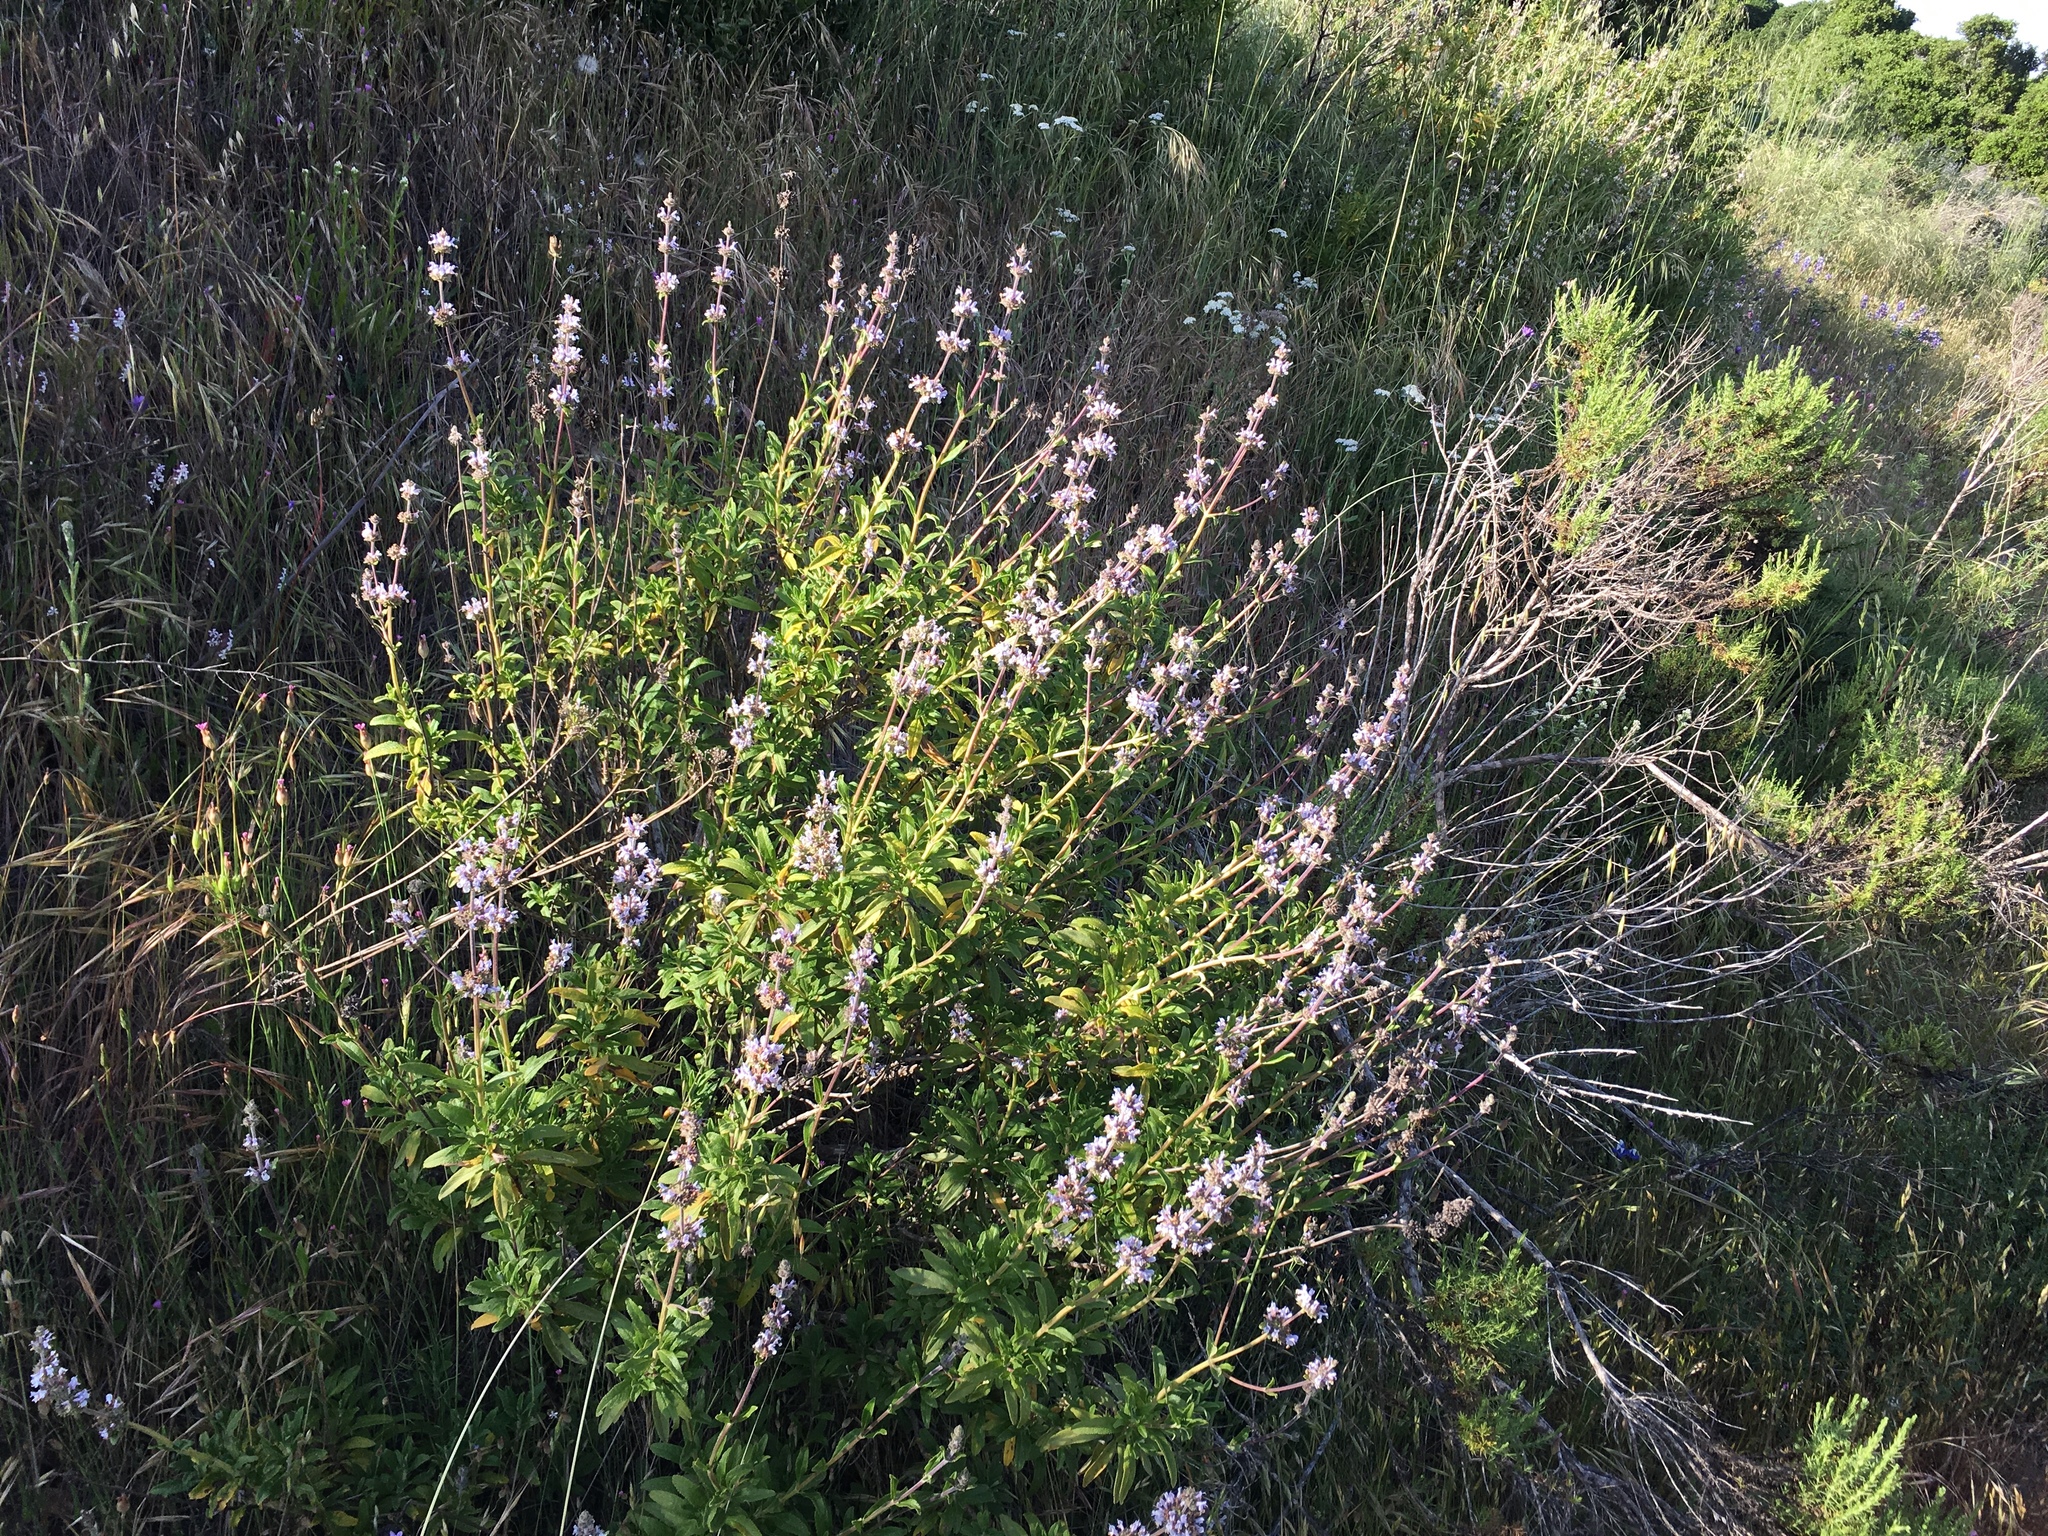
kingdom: Plantae
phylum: Tracheophyta
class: Magnoliopsida
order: Lamiales
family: Lamiaceae
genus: Salvia
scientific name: Salvia mellifera
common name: Black sage
